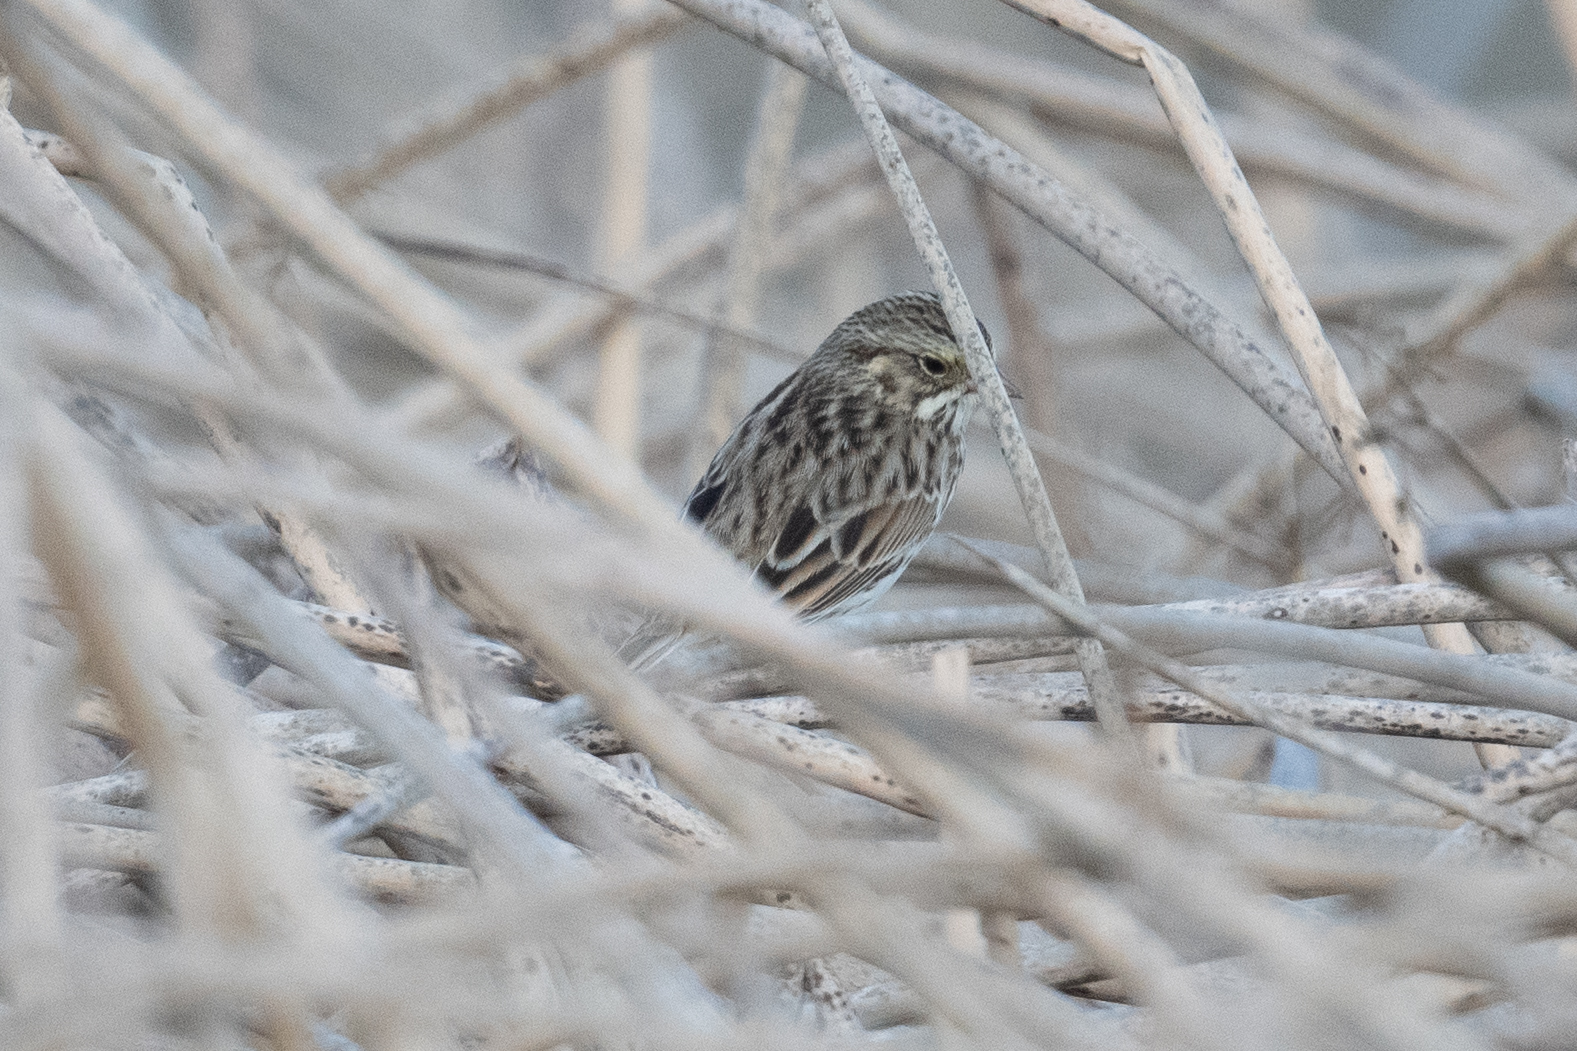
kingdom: Animalia
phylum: Chordata
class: Aves
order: Passeriformes
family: Passerellidae
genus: Passerculus
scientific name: Passerculus sandwichensis
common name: Savannah sparrow
